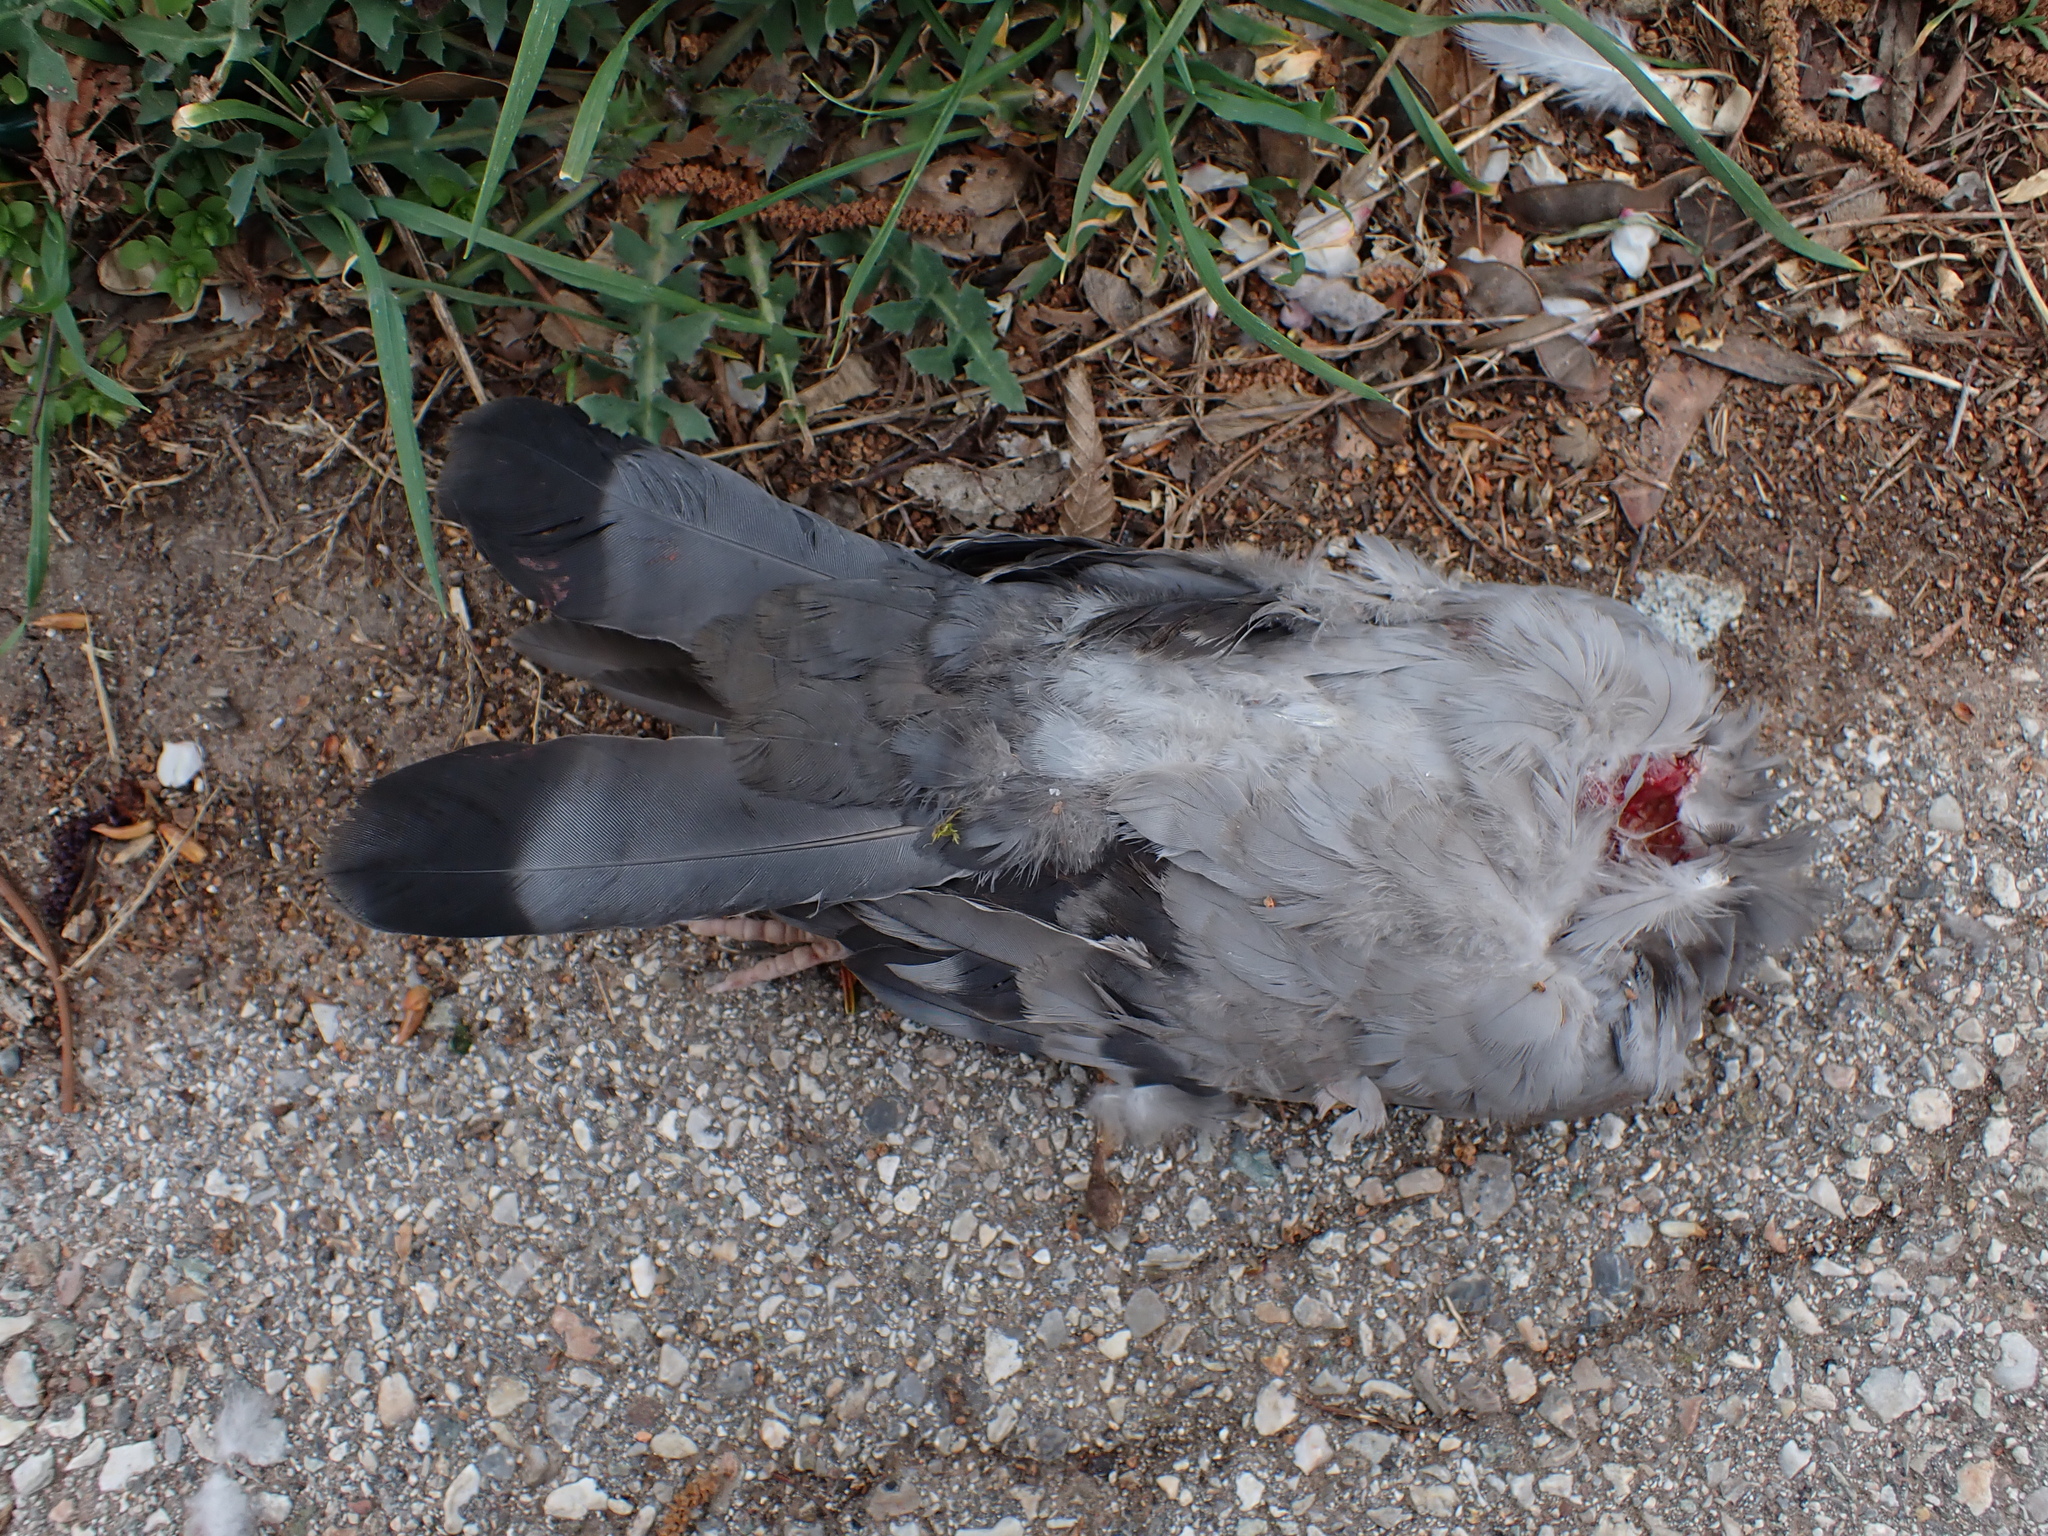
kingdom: Animalia
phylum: Chordata
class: Aves
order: Columbiformes
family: Columbidae
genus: Columba
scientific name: Columba livia
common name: Rock pigeon
